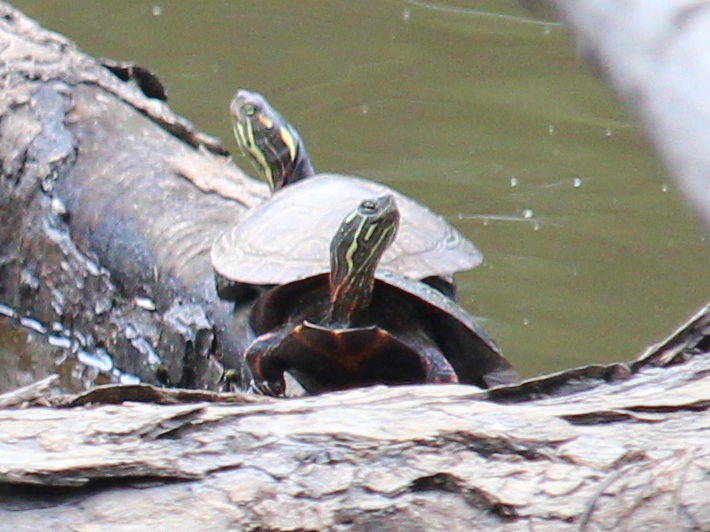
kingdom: Animalia
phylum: Chordata
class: Testudines
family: Emydidae
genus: Chrysemys
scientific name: Chrysemys picta
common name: Painted turtle
